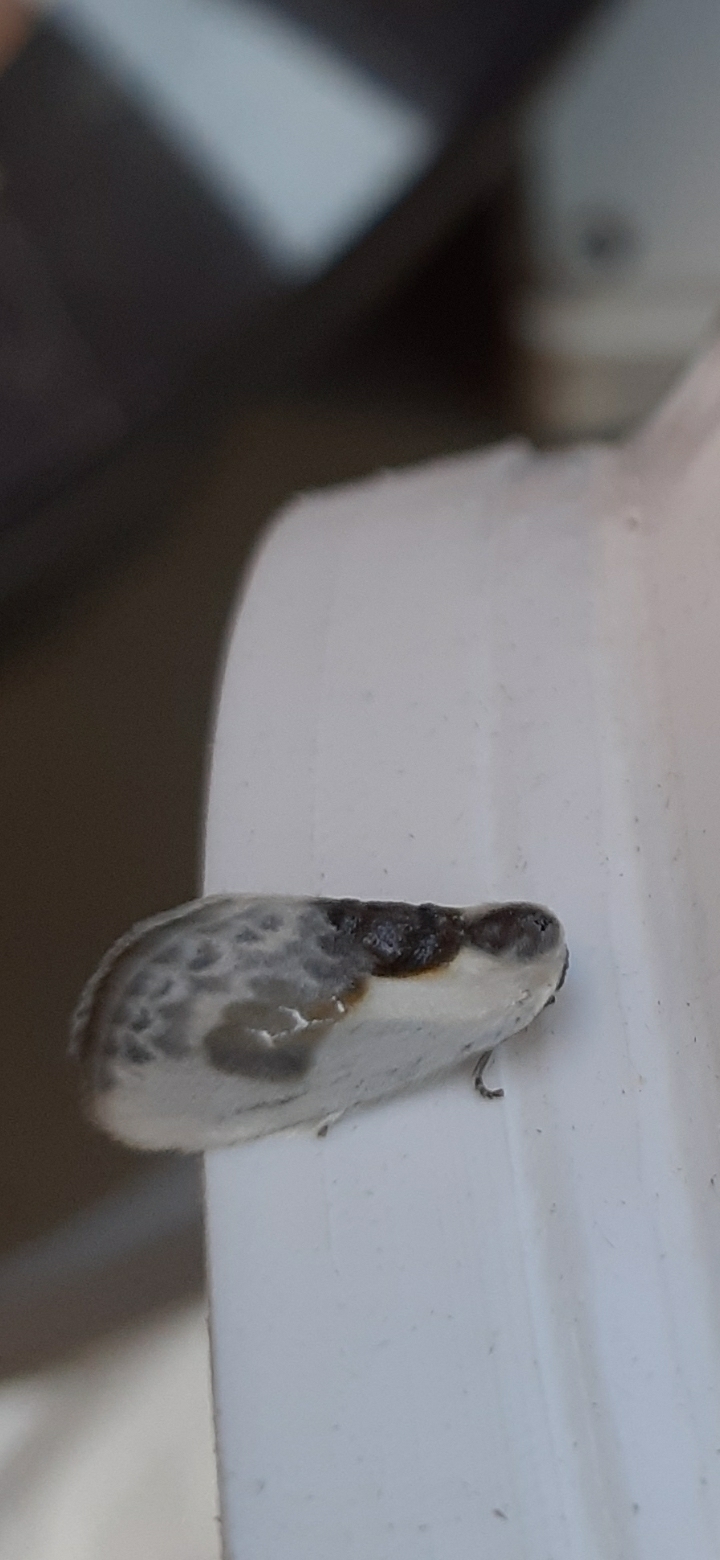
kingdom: Animalia
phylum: Arthropoda
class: Insecta
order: Lepidoptera
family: Drepanidae
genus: Cilix
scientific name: Cilix glaucata
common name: Chinese character
